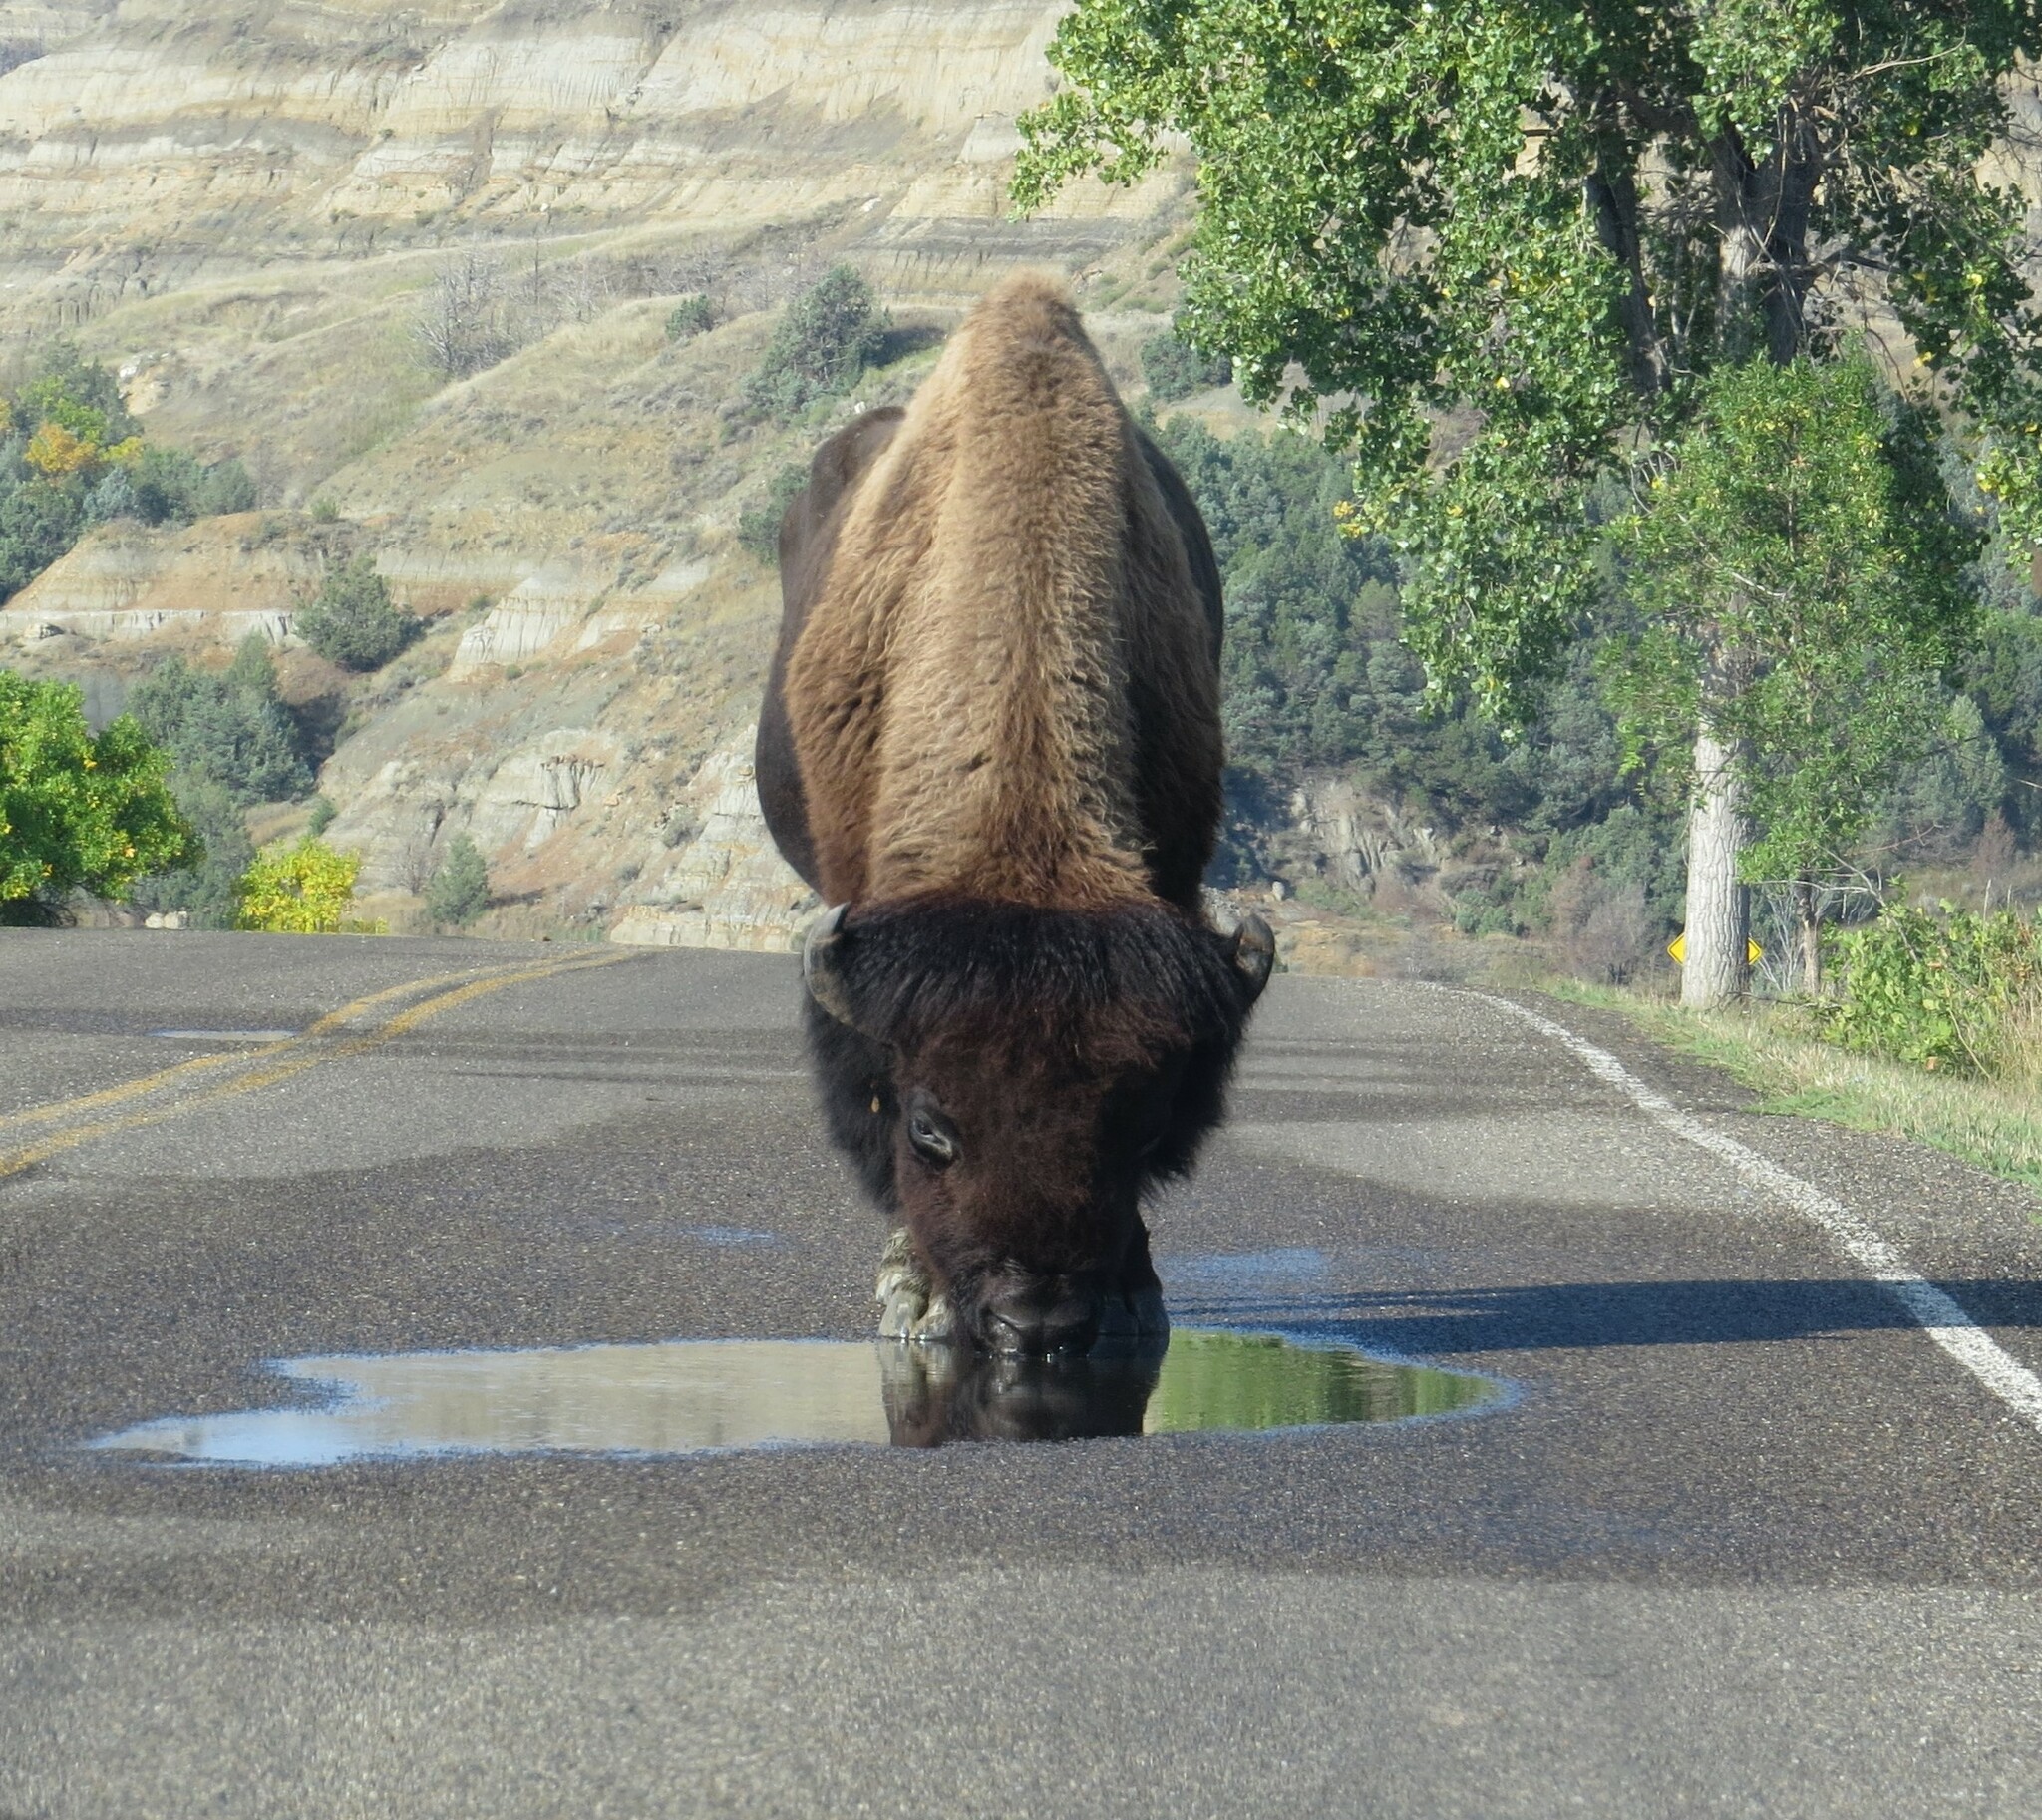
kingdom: Animalia
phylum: Chordata
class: Mammalia
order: Artiodactyla
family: Bovidae
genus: Bison
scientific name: Bison bison
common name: American bison
